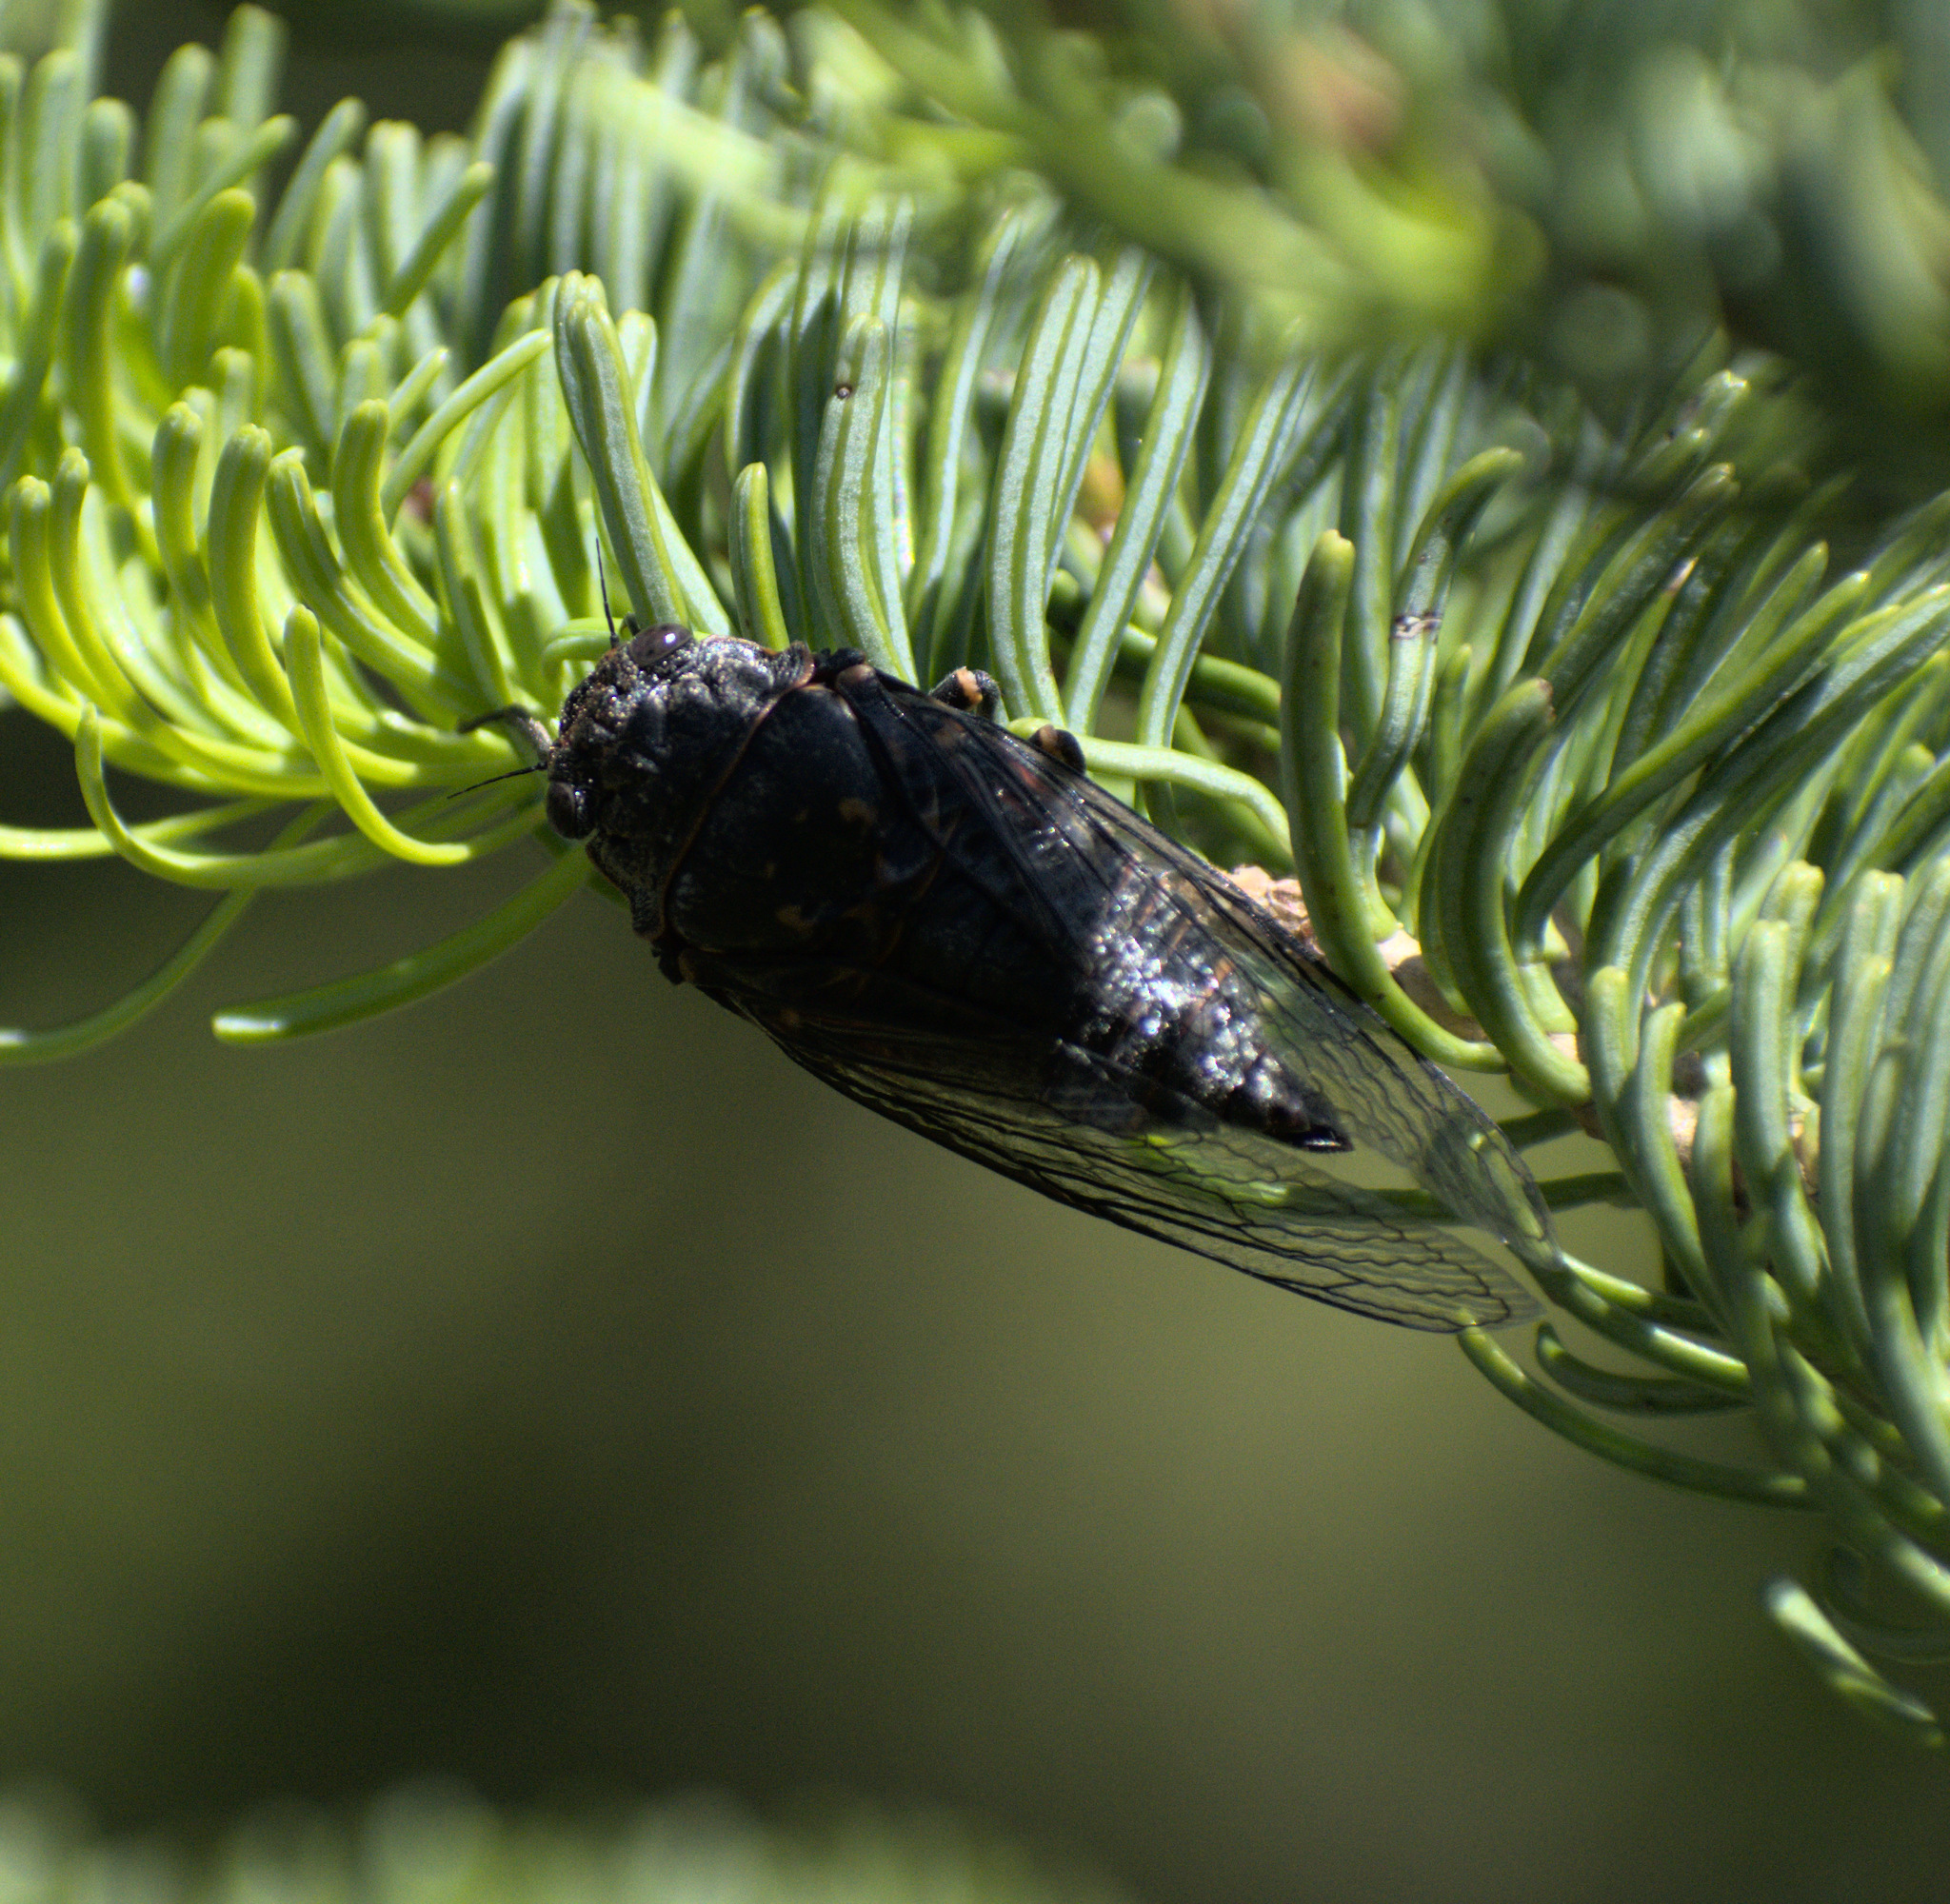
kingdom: Animalia
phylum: Arthropoda
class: Insecta
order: Hemiptera
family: Cicadidae
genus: Okanagana
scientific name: Okanagana occidentalis
